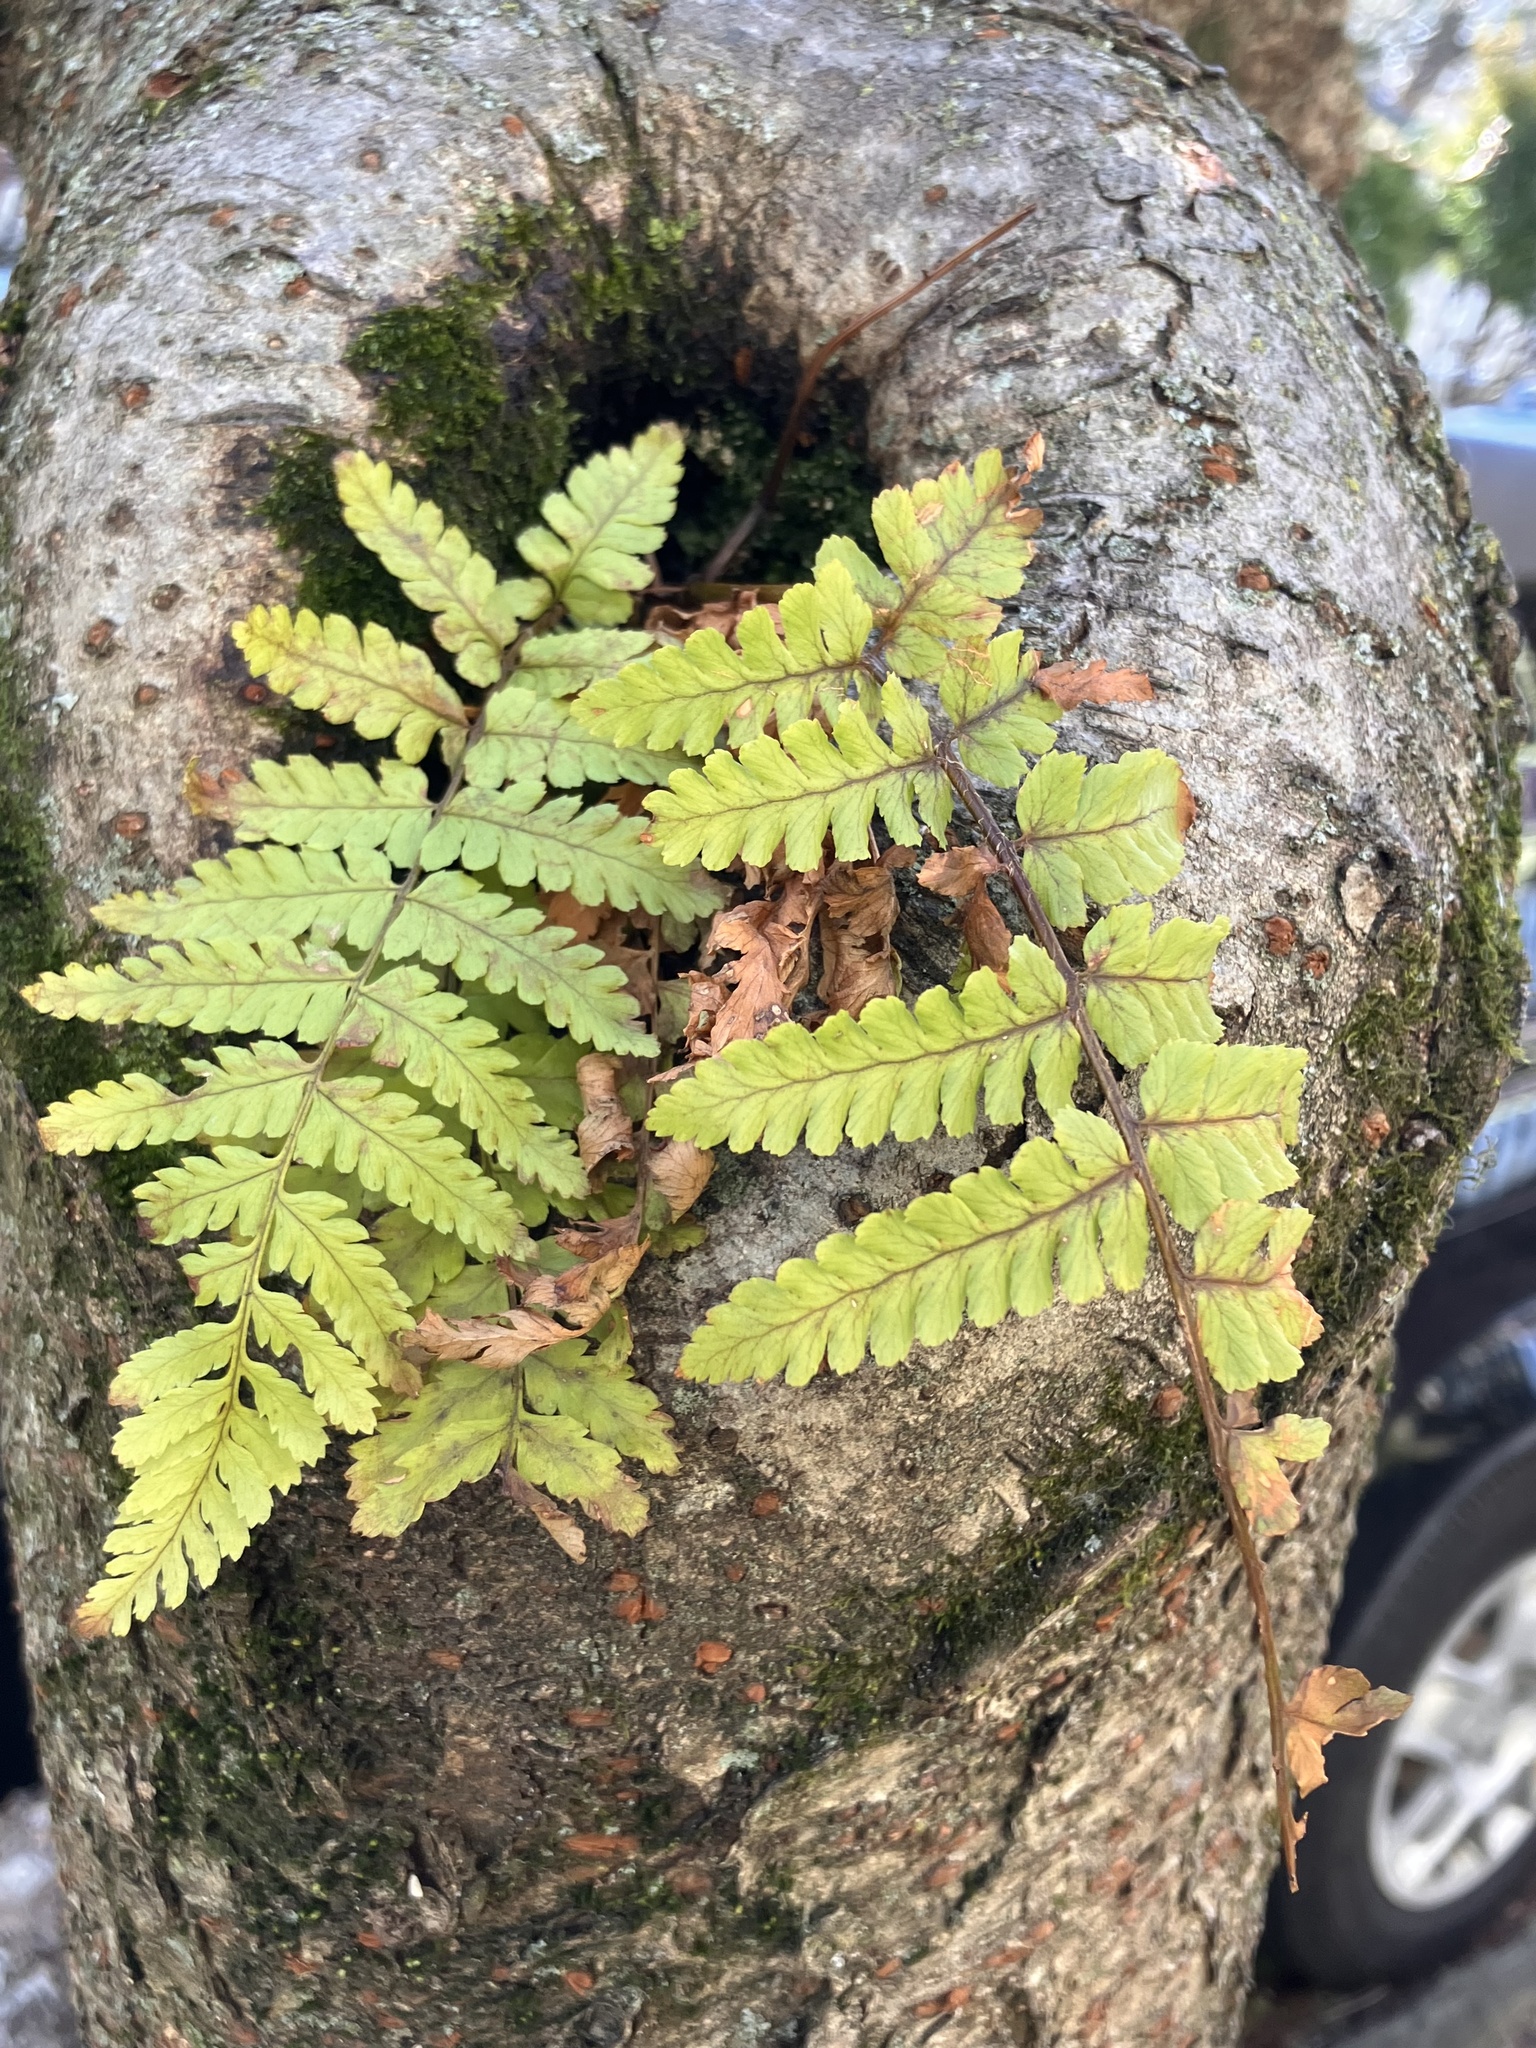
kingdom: Plantae
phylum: Tracheophyta
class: Polypodiopsida
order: Polypodiales
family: Dryopteridaceae
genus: Dryopteris
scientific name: Dryopteris erythrosora
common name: Autumn fern
